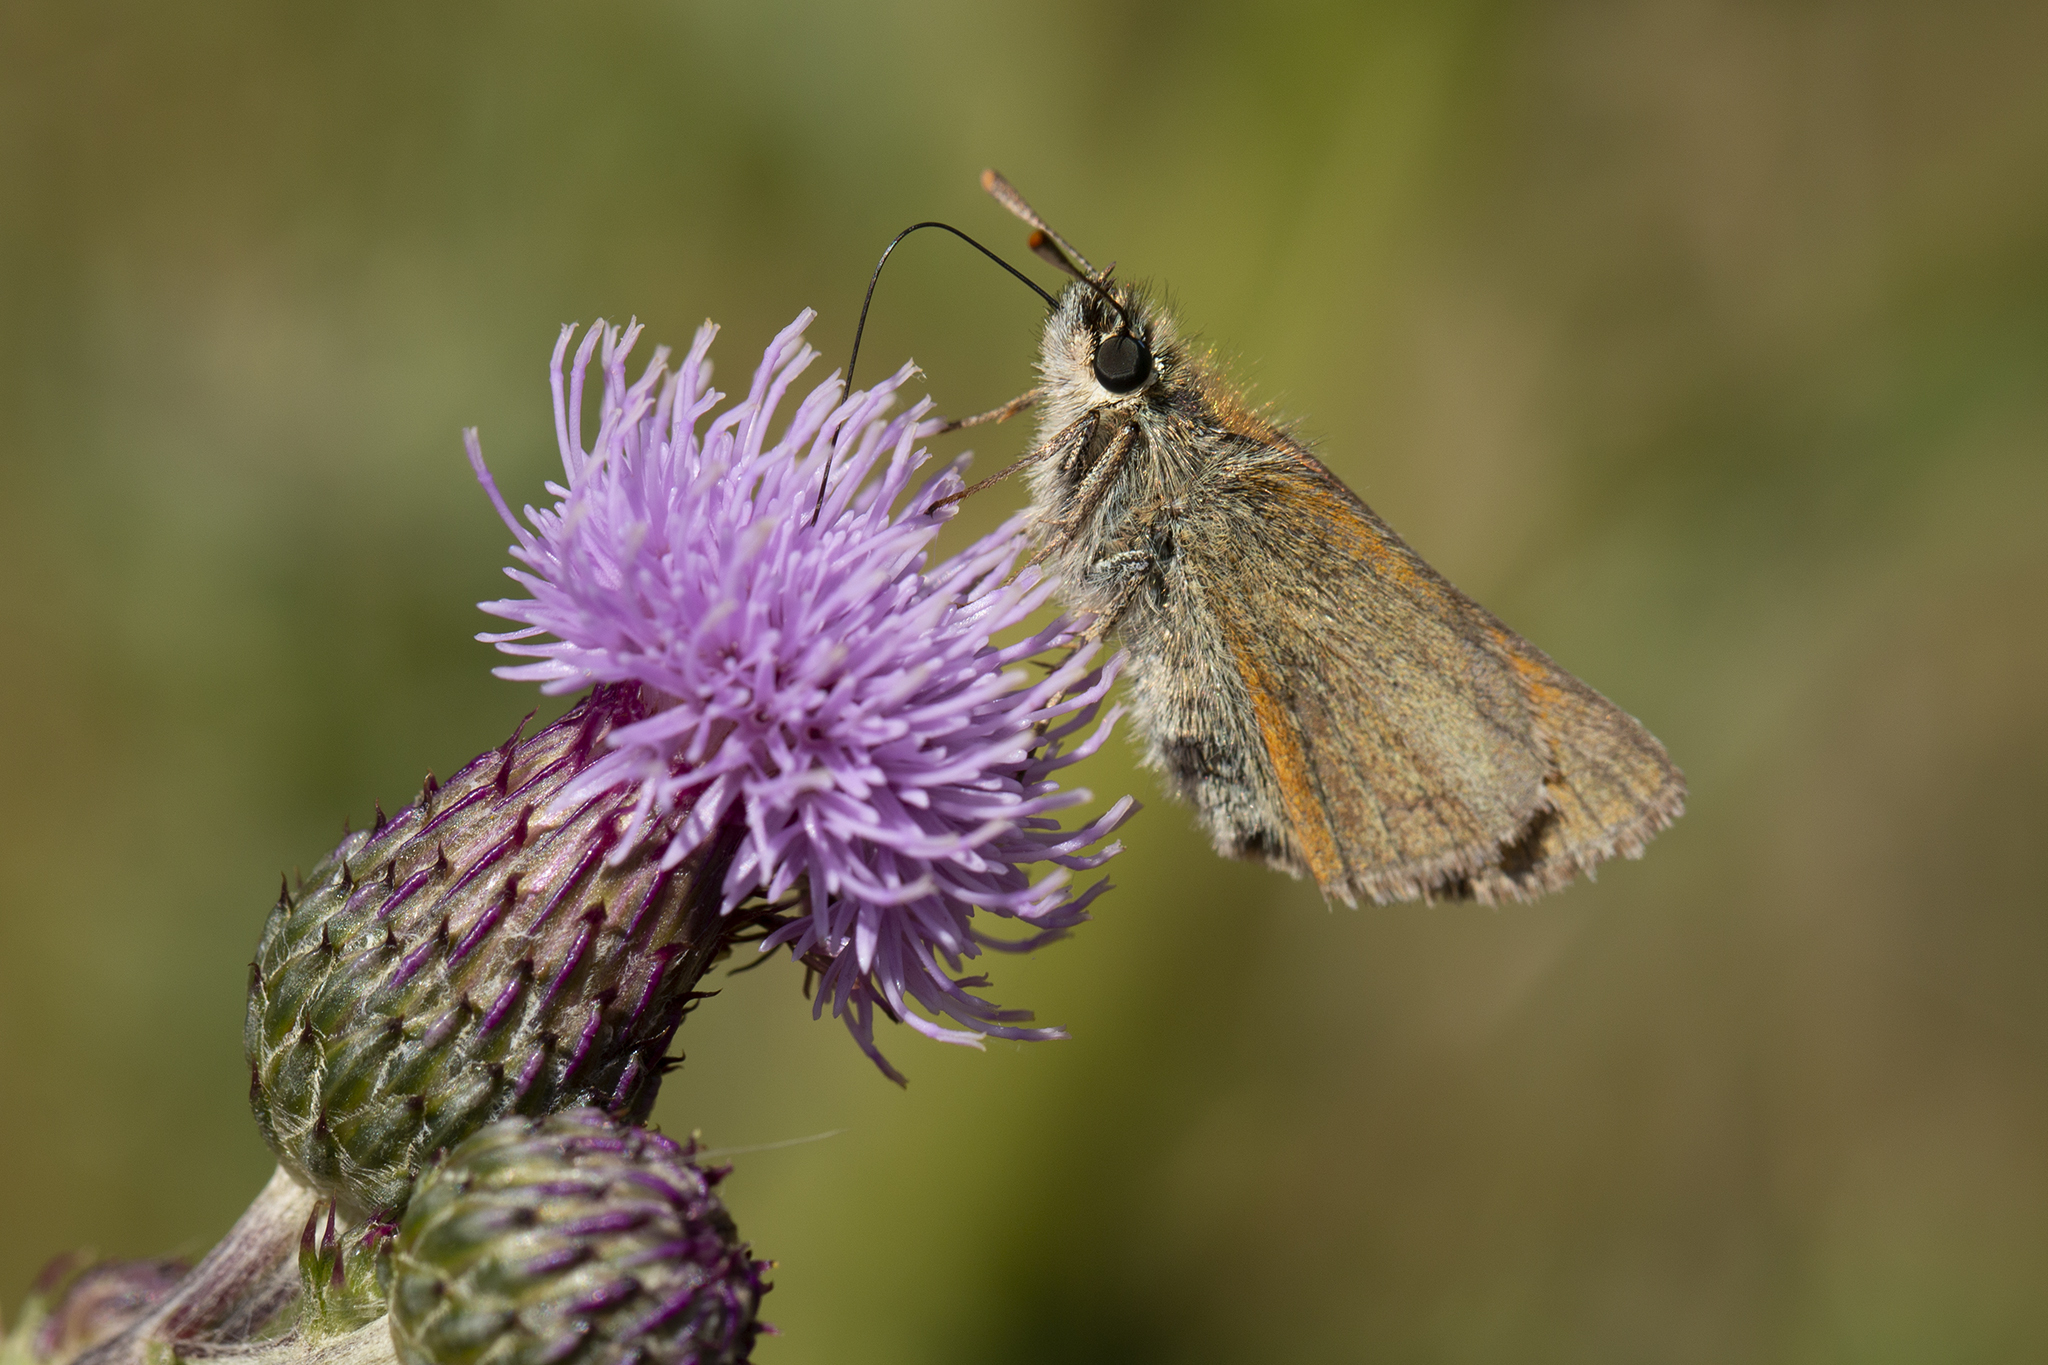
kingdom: Animalia
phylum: Arthropoda
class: Insecta
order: Lepidoptera
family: Hesperiidae
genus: Thymelicus
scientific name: Thymelicus sylvestris
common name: Small skipper
